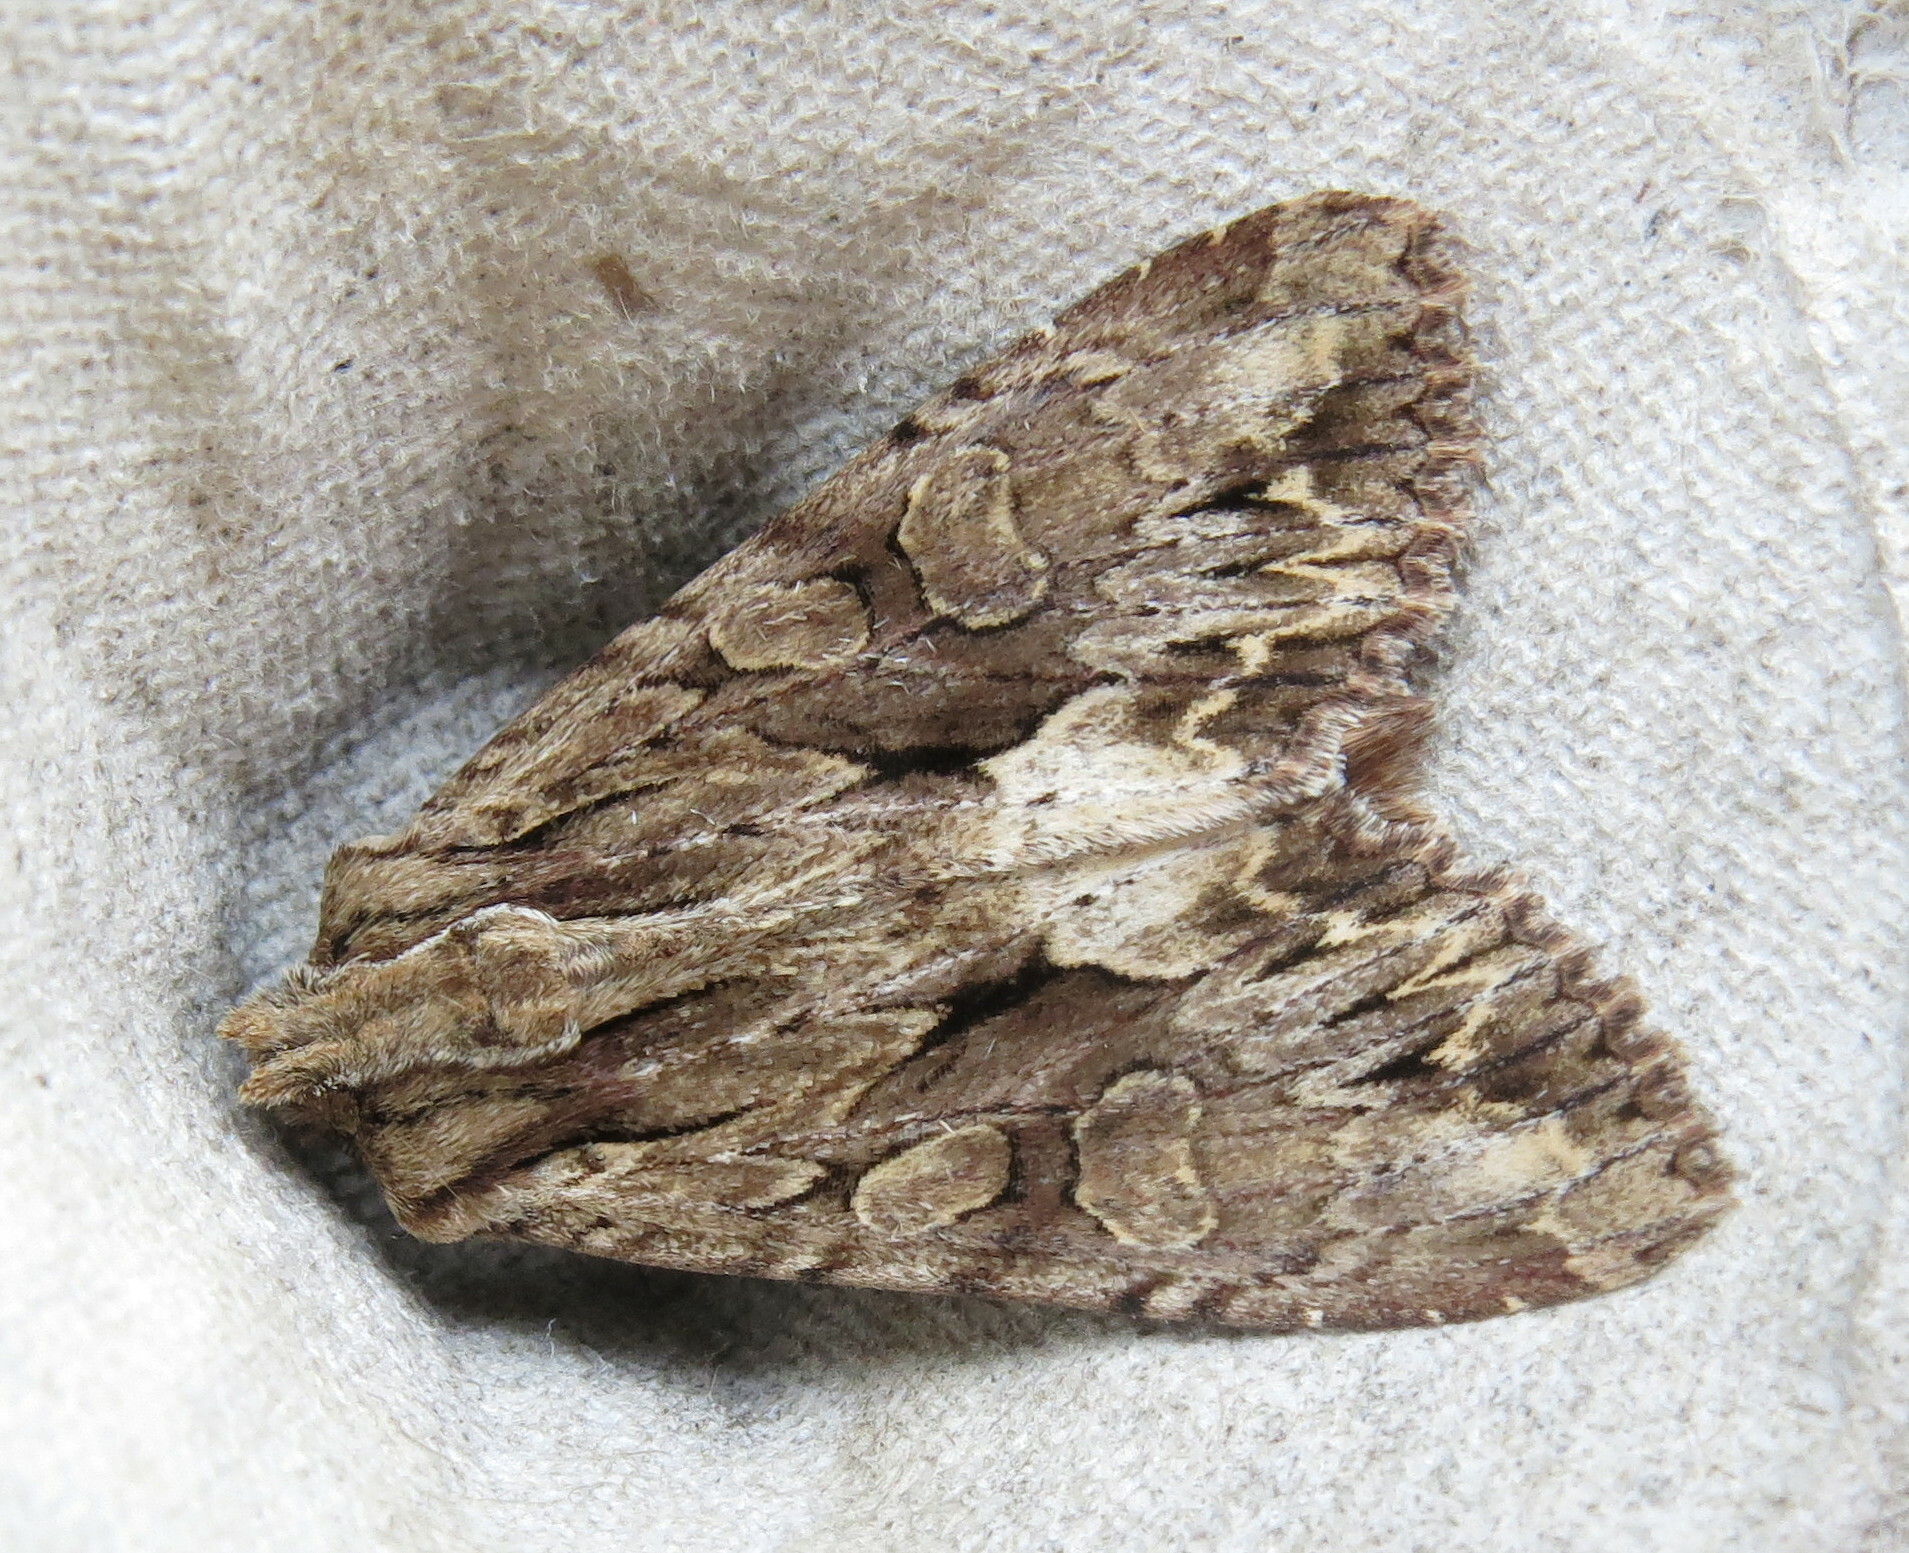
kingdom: Animalia
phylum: Arthropoda
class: Insecta
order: Lepidoptera
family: Noctuidae
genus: Apamea
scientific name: Apamea monoglypha
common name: Dark arches
